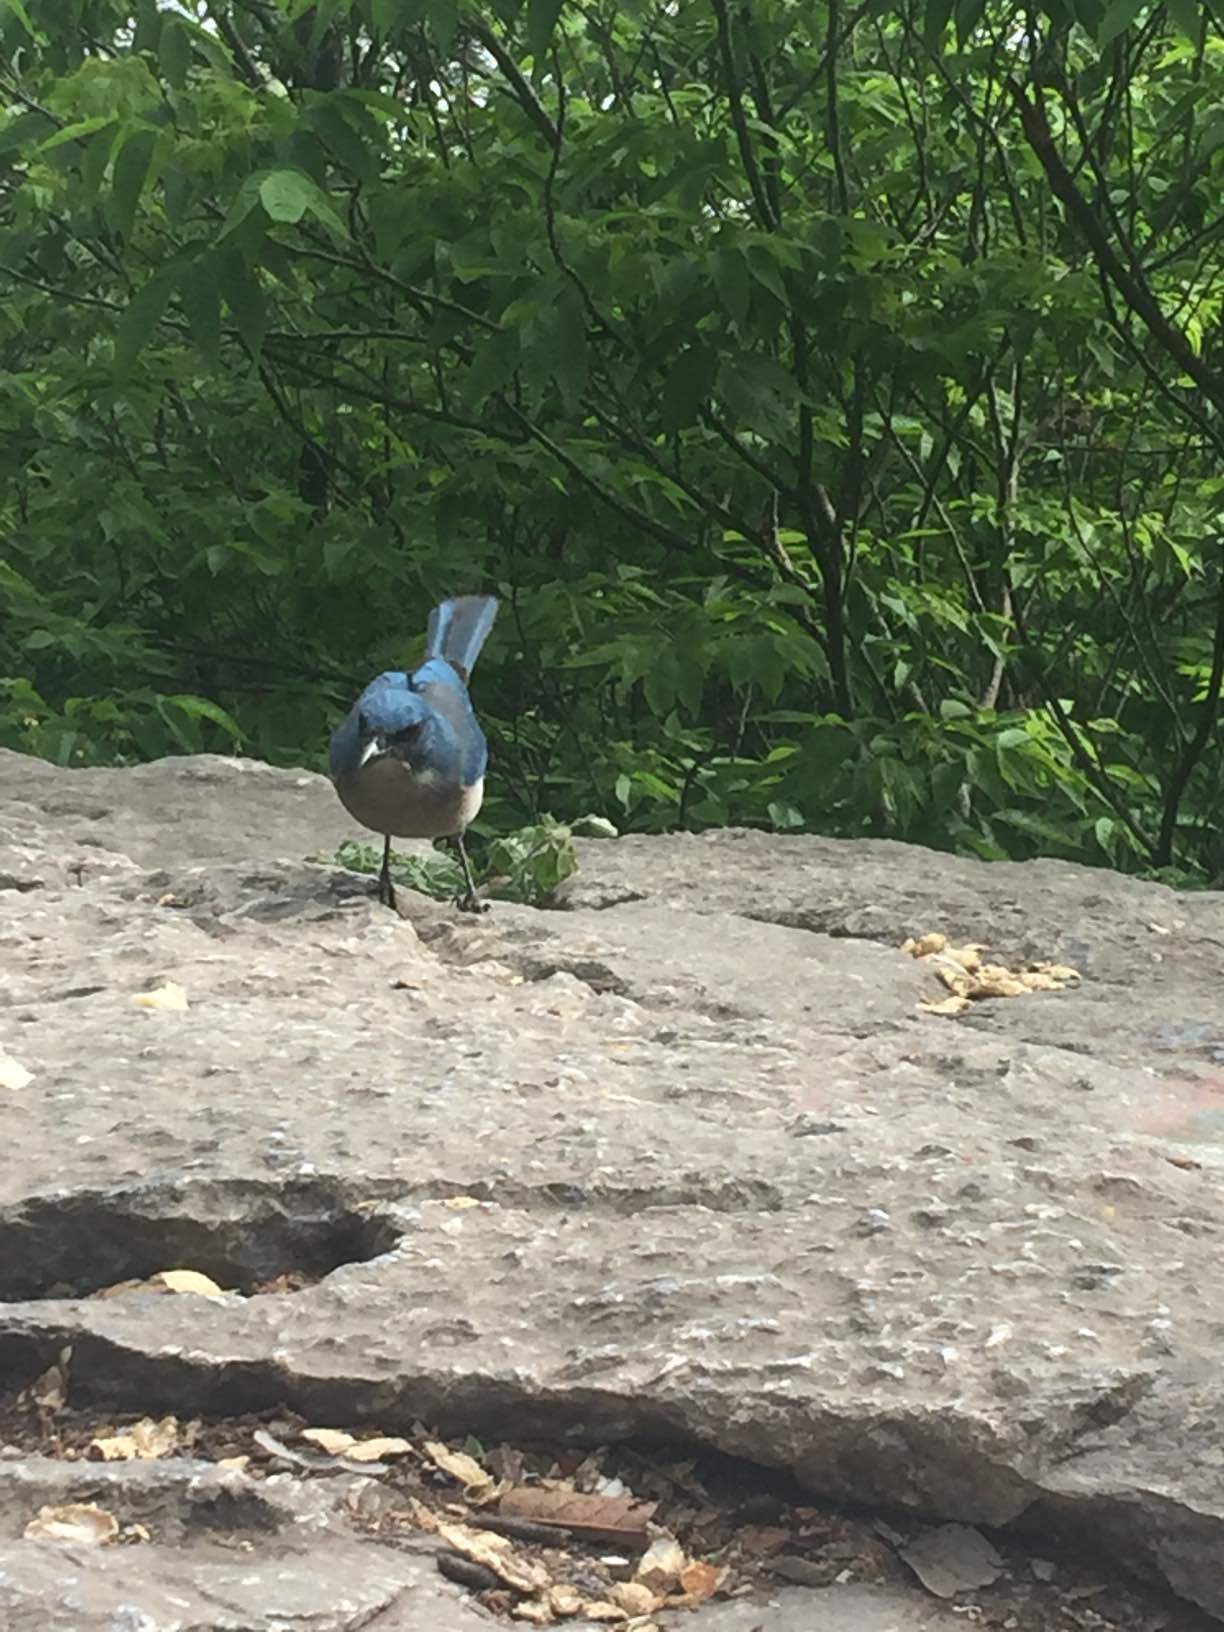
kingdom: Animalia
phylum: Chordata
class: Aves
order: Passeriformes
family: Corvidae
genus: Aphelocoma
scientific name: Aphelocoma wollweberi
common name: Mexican jay
